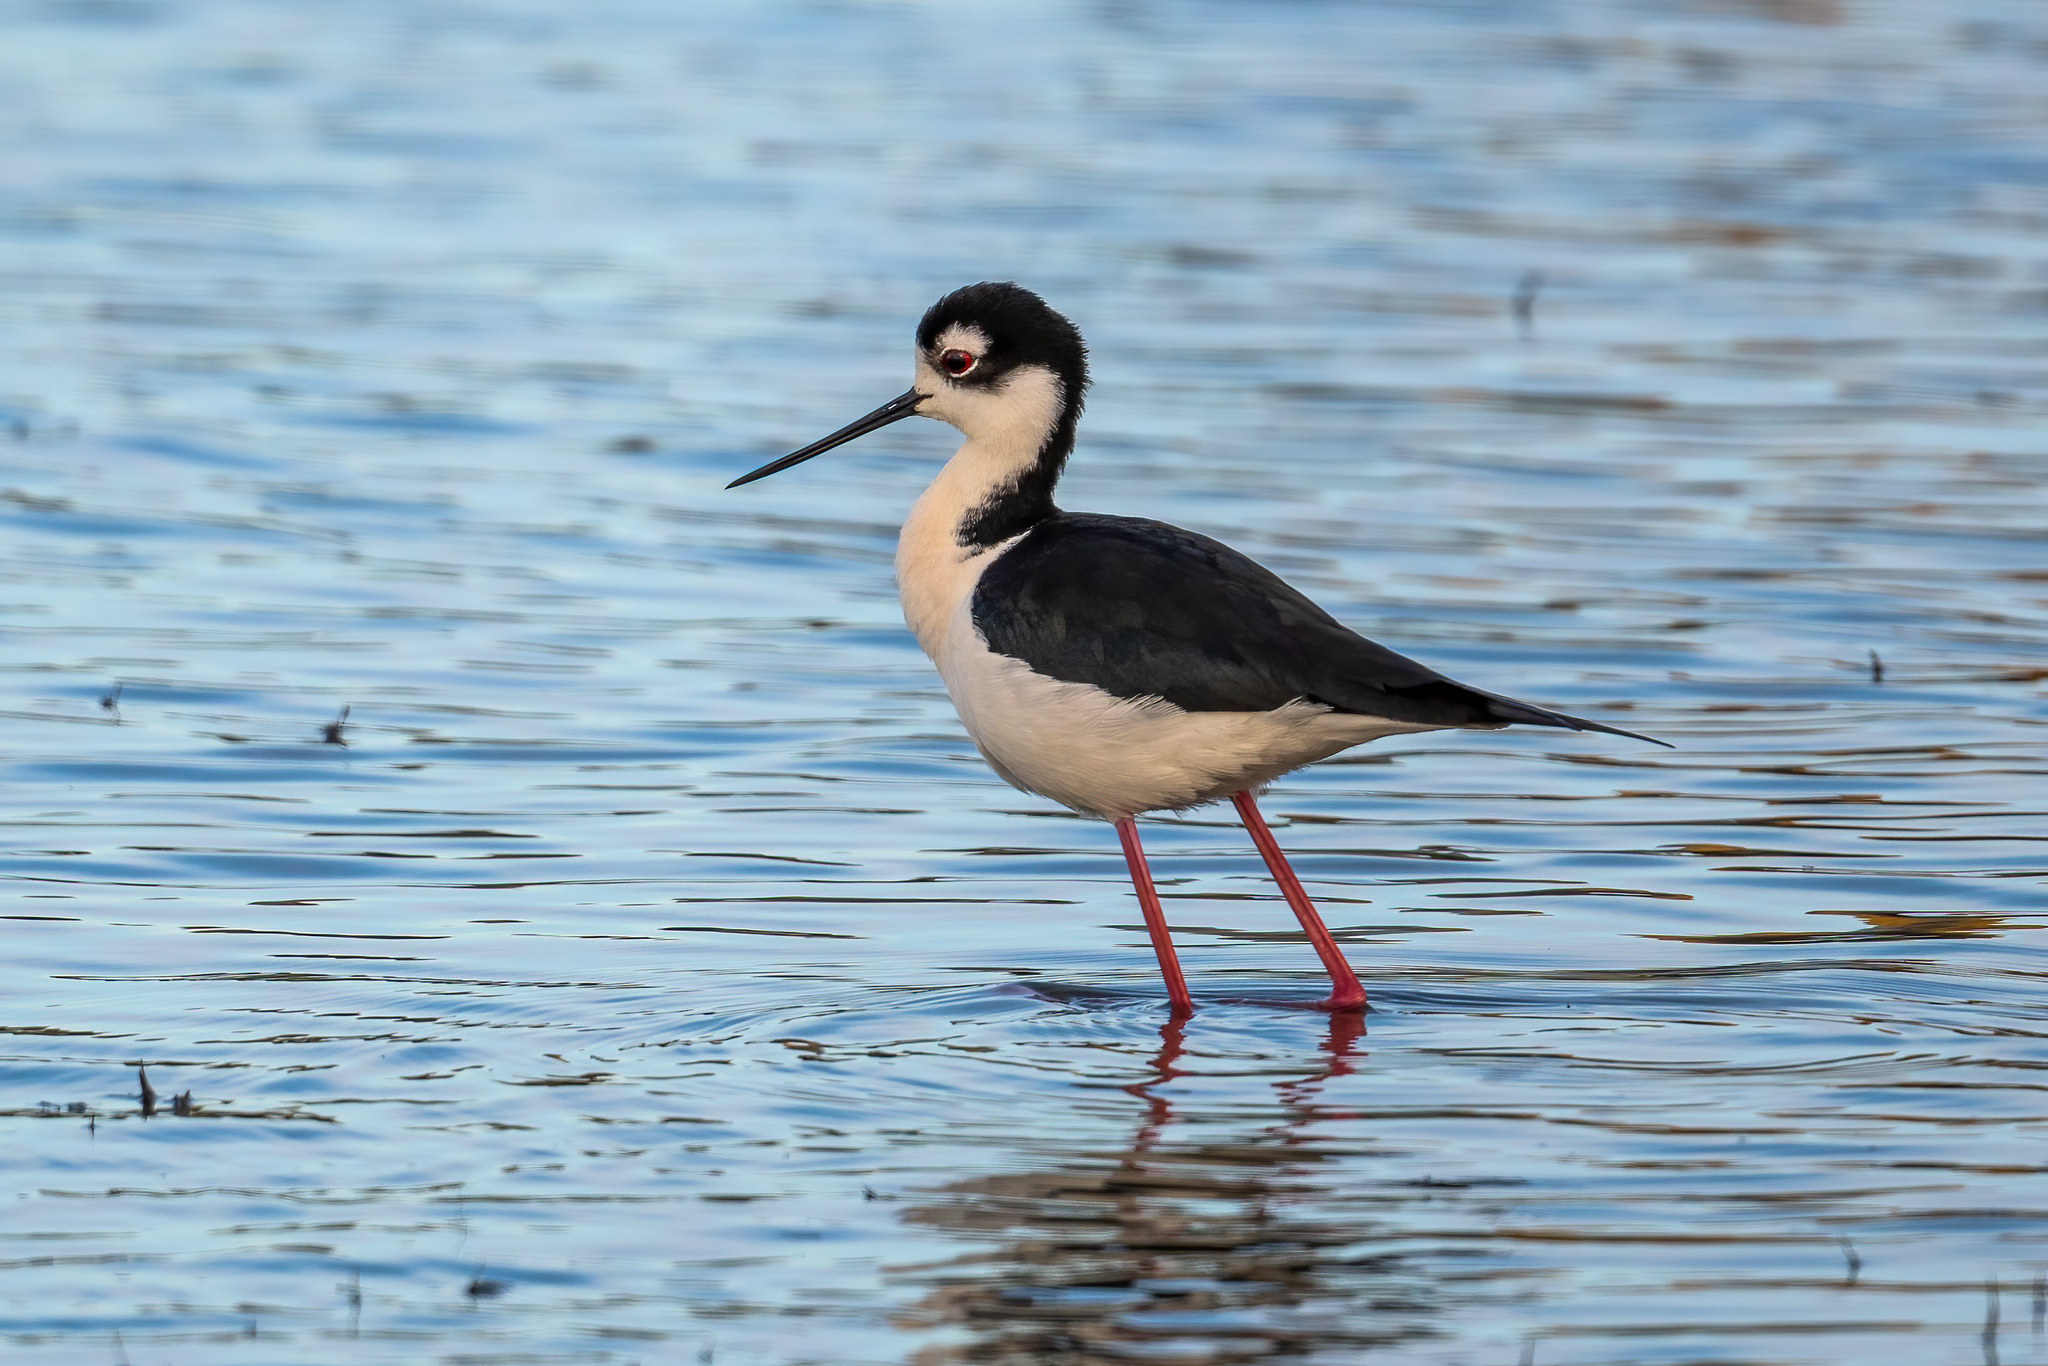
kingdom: Animalia
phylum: Chordata
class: Aves
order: Charadriiformes
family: Recurvirostridae
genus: Himantopus
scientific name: Himantopus mexicanus
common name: Black-necked stilt
